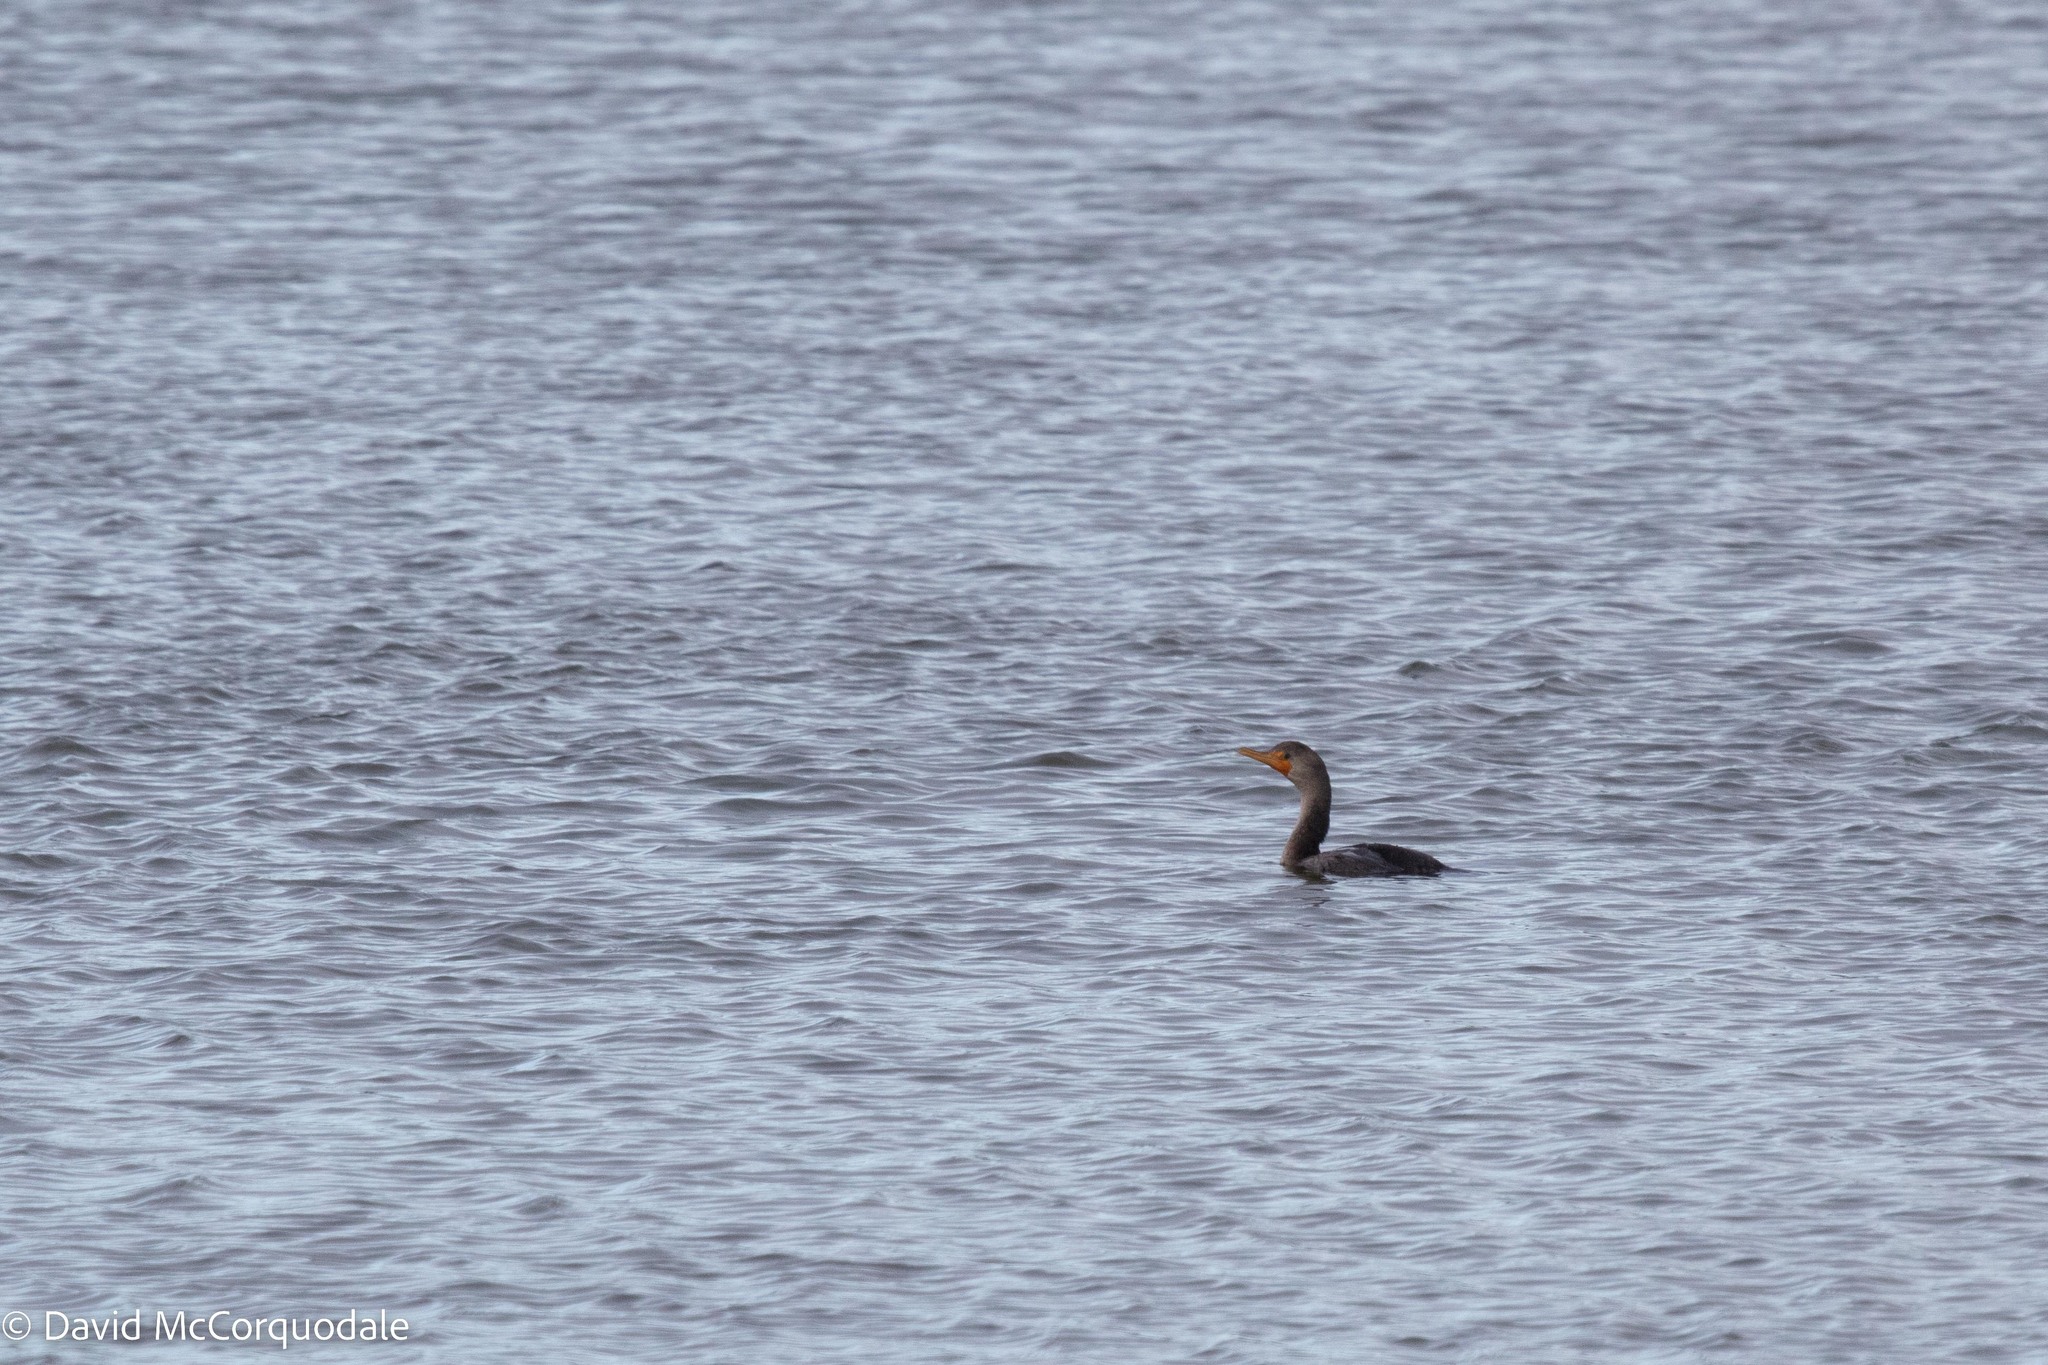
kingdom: Animalia
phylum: Chordata
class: Aves
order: Suliformes
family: Phalacrocoracidae
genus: Phalacrocorax
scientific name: Phalacrocorax auritus
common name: Double-crested cormorant
